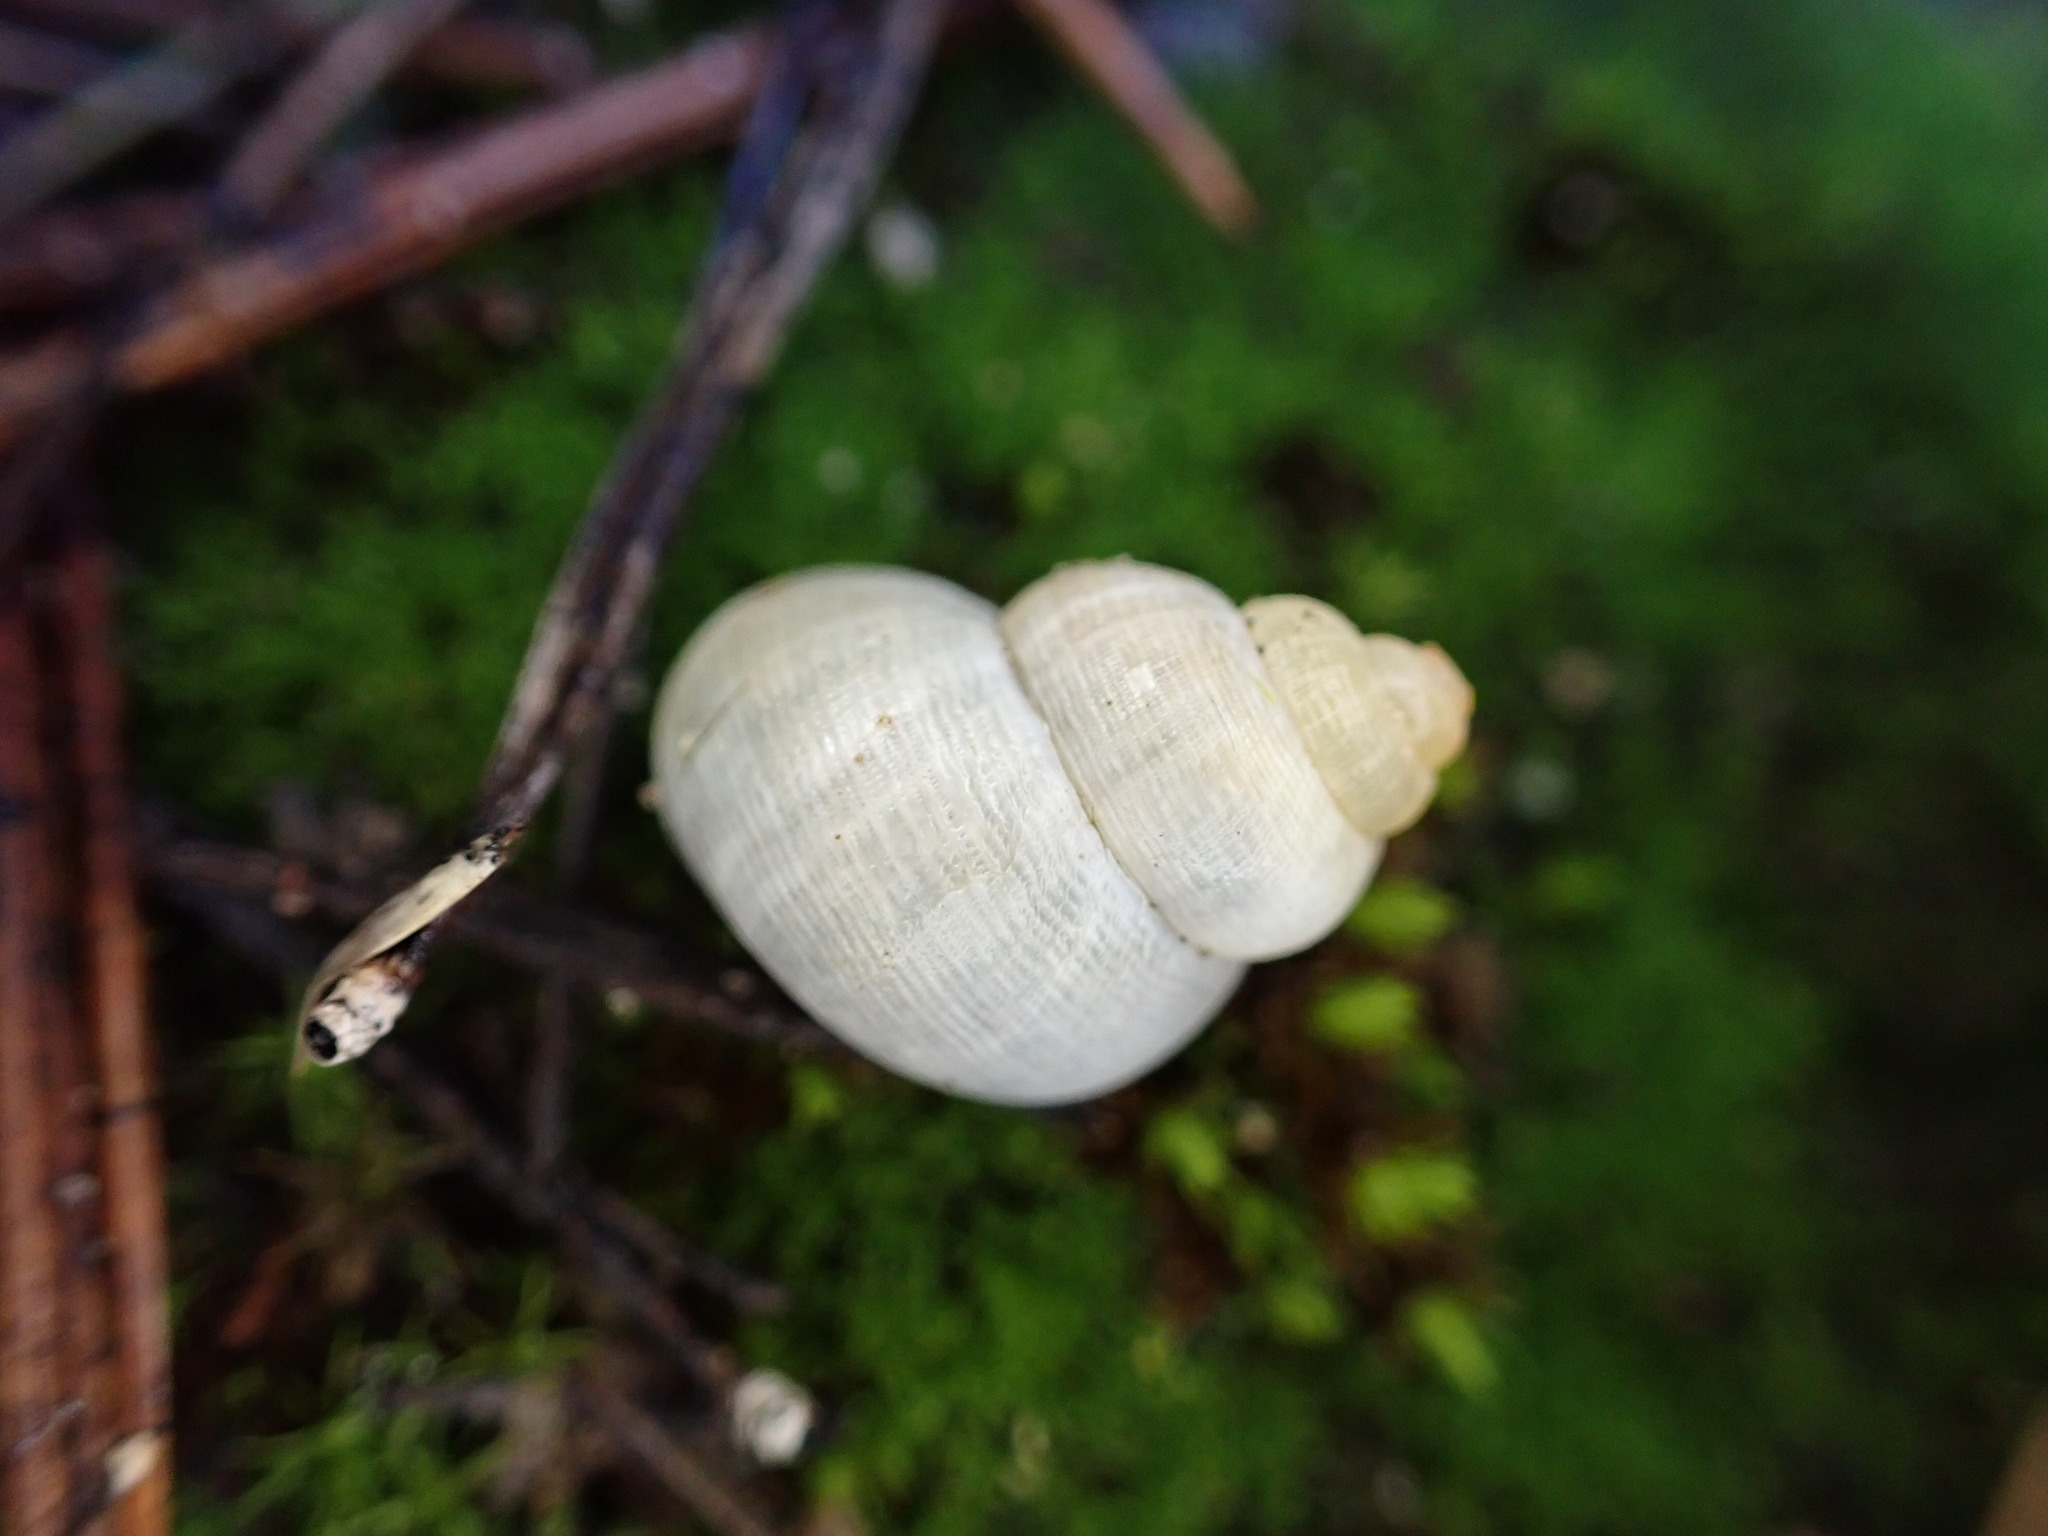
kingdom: Animalia
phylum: Mollusca
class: Gastropoda
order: Littorinimorpha
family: Pomatiidae
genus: Pomatias
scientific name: Pomatias elegans
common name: Red-mouthed snail
